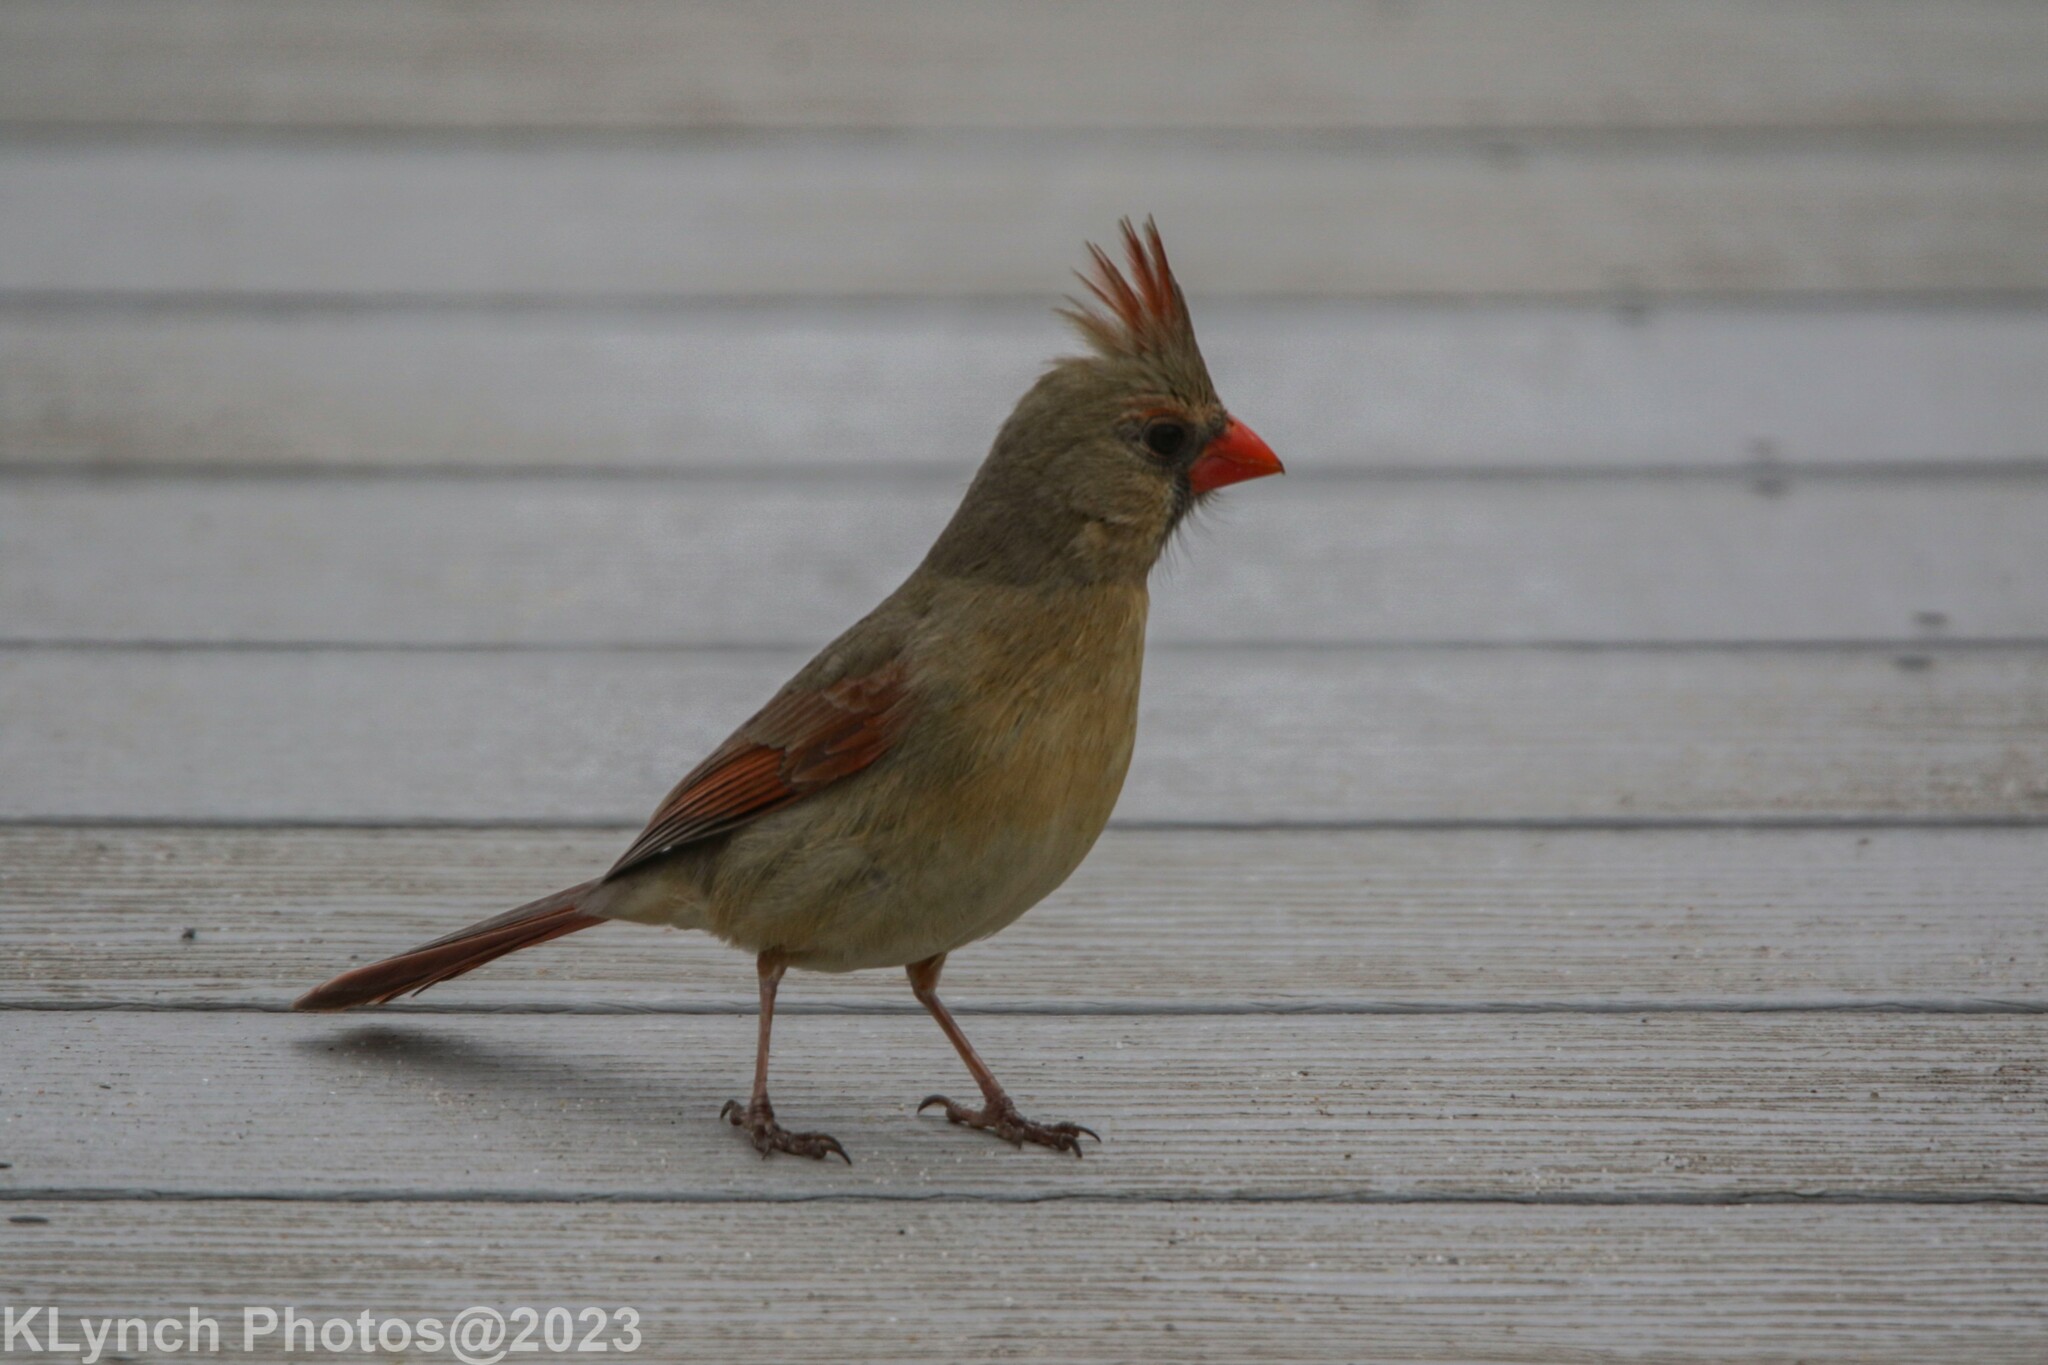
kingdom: Animalia
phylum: Chordata
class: Aves
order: Passeriformes
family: Cardinalidae
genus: Cardinalis
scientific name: Cardinalis cardinalis
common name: Northern cardinal
